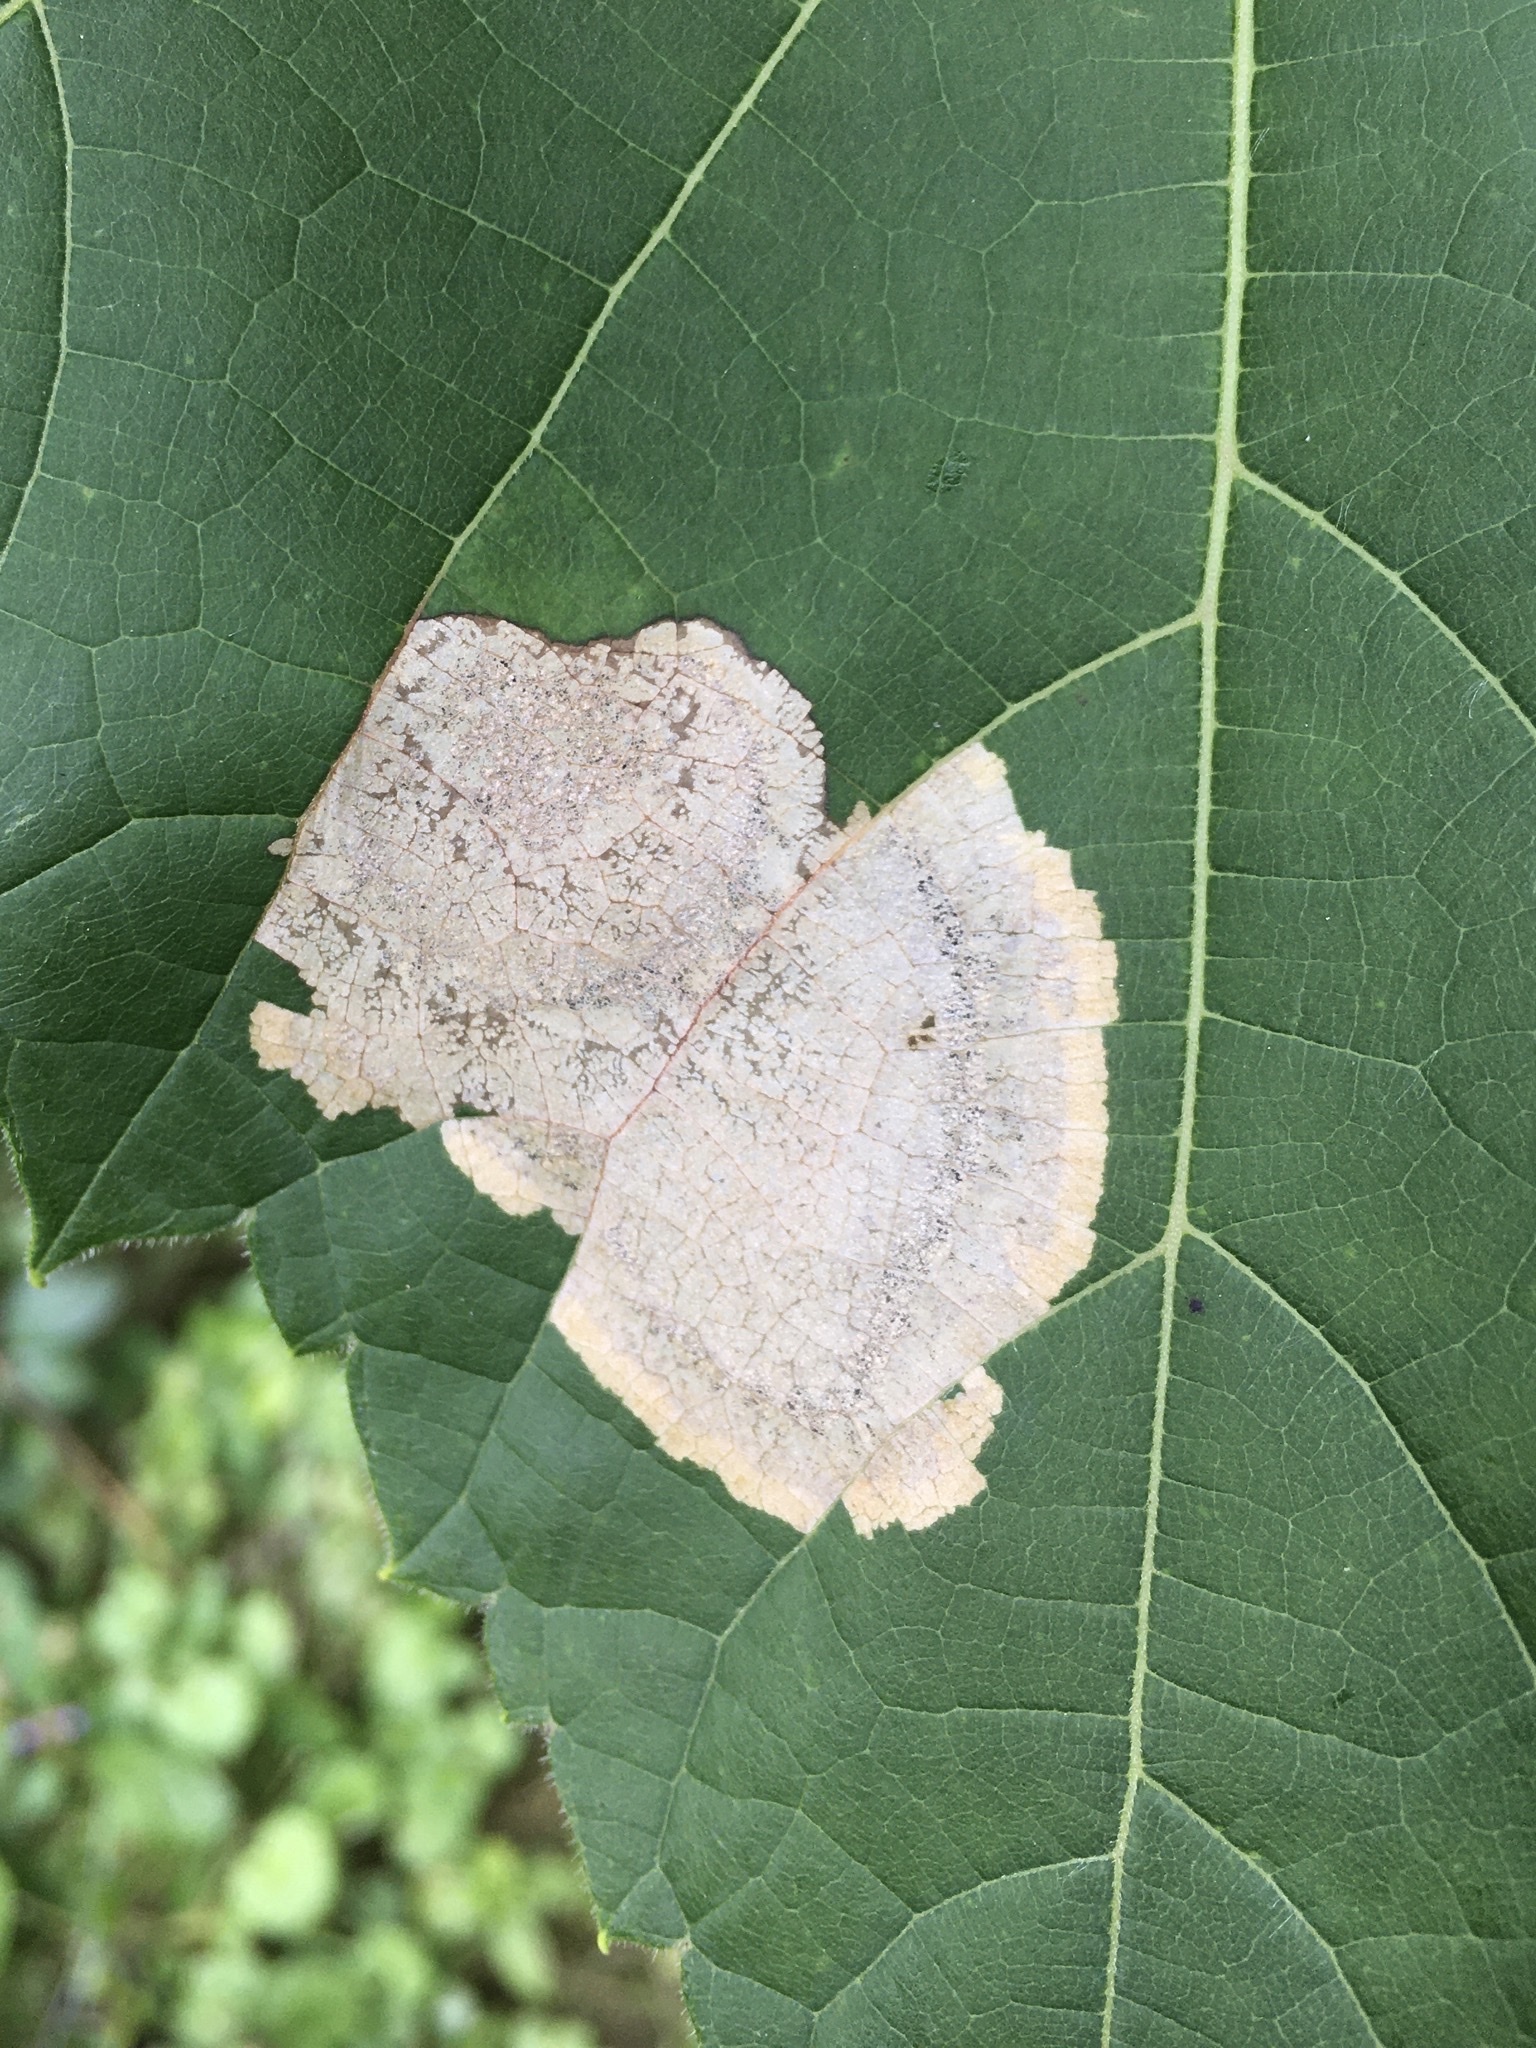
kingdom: Animalia
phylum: Arthropoda
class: Insecta
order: Lepidoptera
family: Zygaenidae
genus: Harrisina
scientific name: Harrisina americana
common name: Grapeleaf skeletonizer moth
